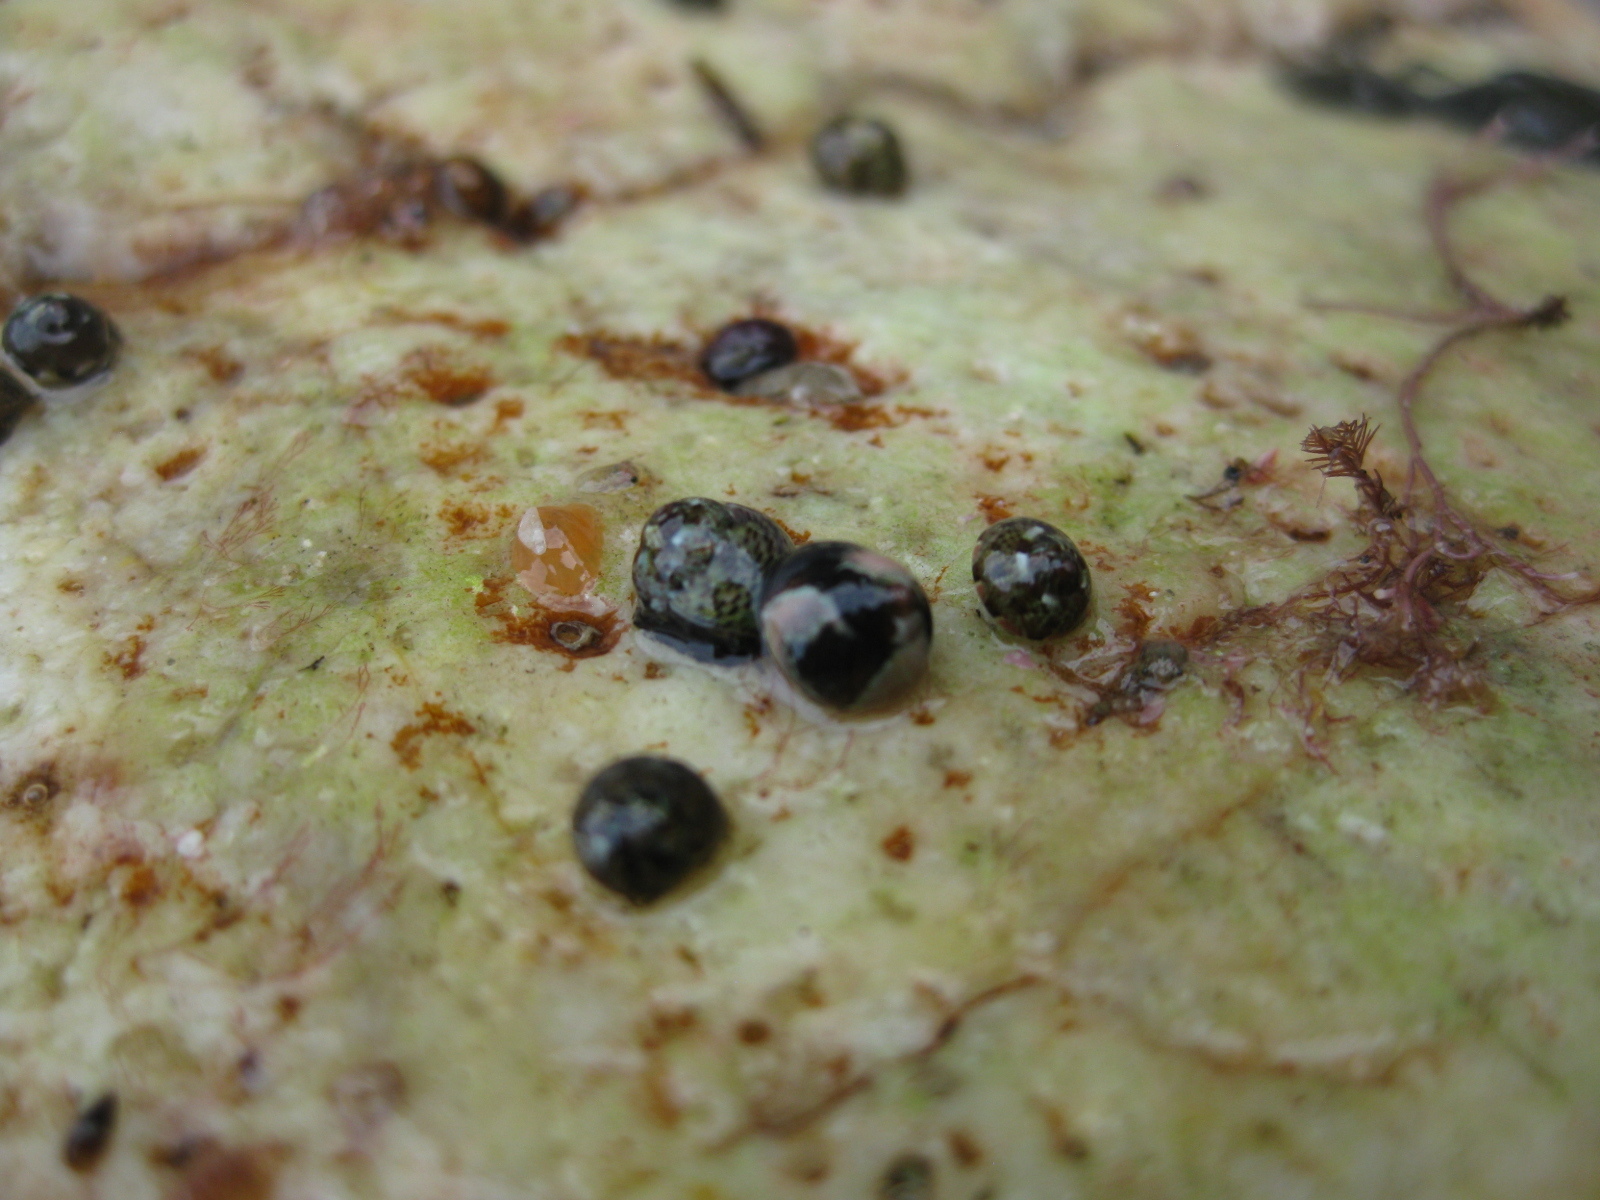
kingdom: Animalia
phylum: Mollusca
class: Gastropoda
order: Trochida
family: Trochidae
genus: Micrelenchus
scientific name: Micrelenchus tessellatus
